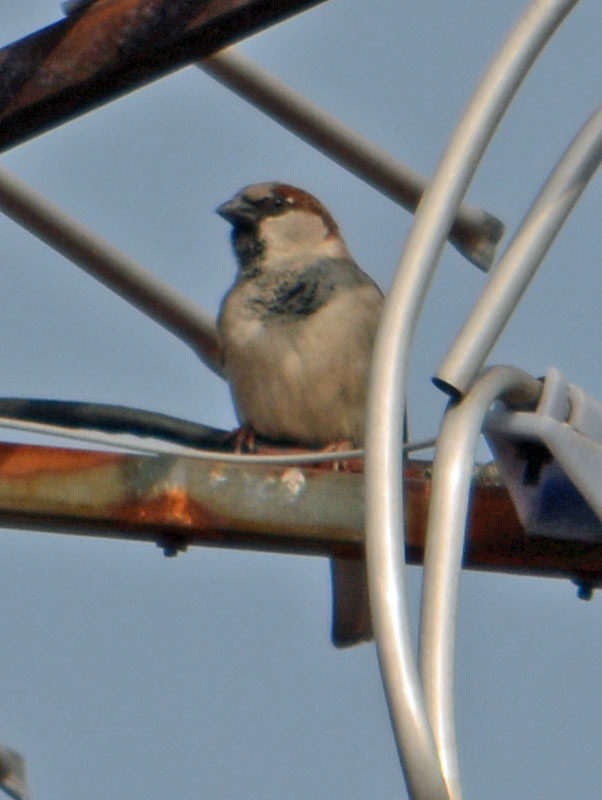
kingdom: Animalia
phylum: Chordata
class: Aves
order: Passeriformes
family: Passeridae
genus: Passer
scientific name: Passer domesticus
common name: House sparrow
